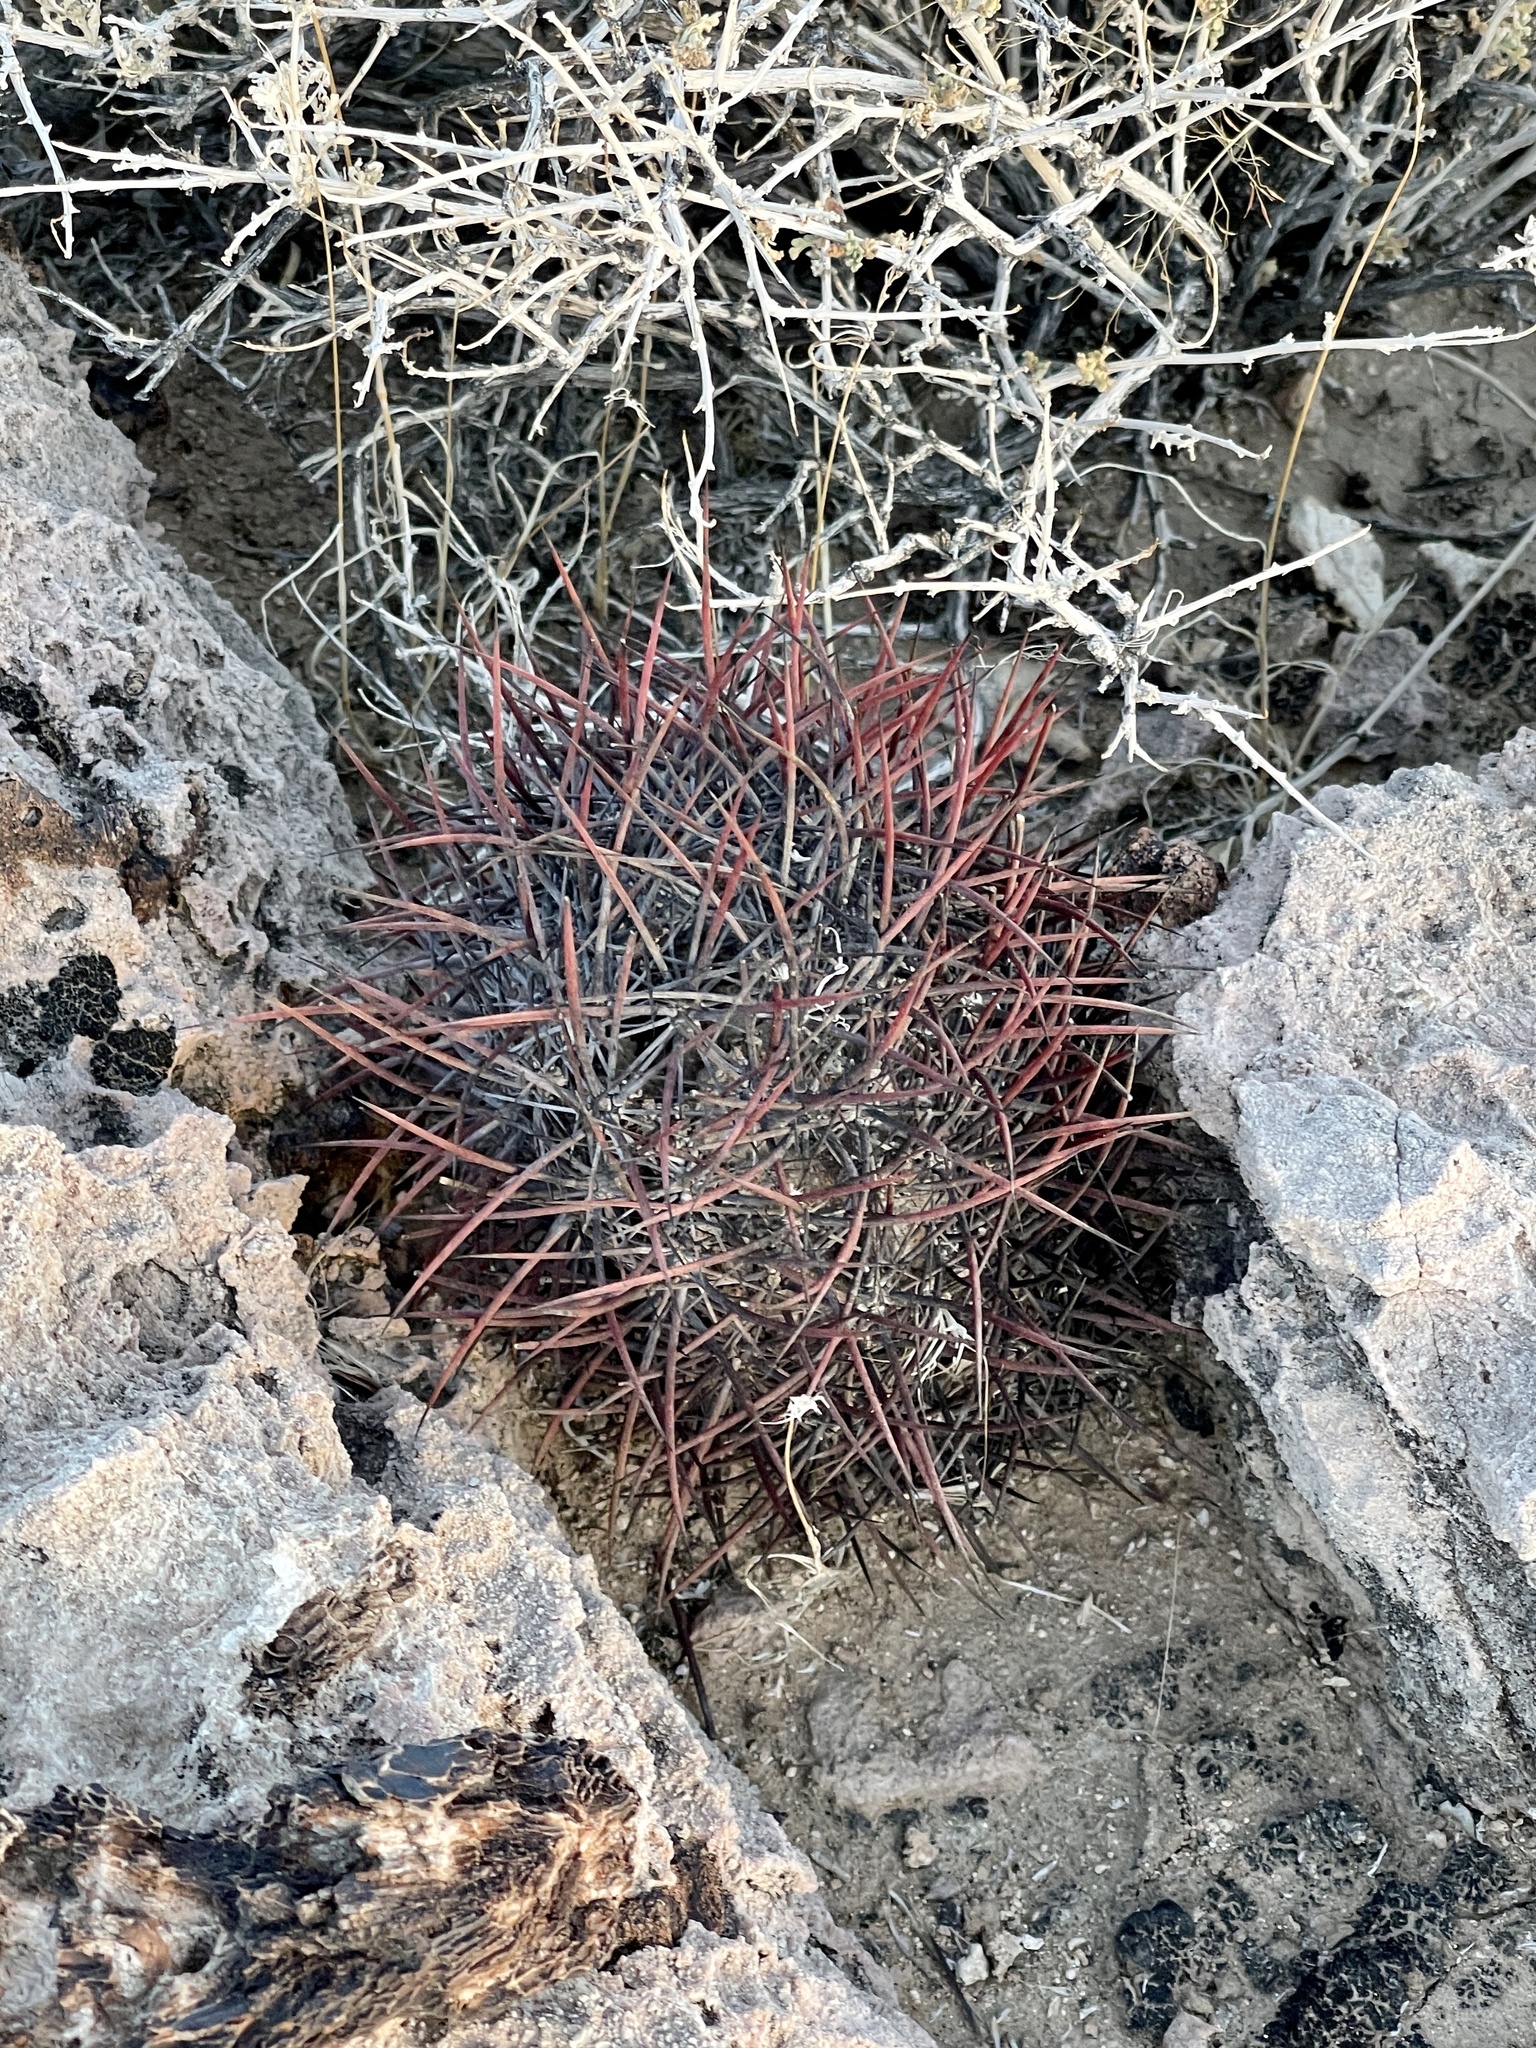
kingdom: Plantae
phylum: Tracheophyta
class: Magnoliopsida
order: Caryophyllales
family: Cactaceae
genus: Ferocactus
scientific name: Ferocactus cylindraceus
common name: California barrel cactus
